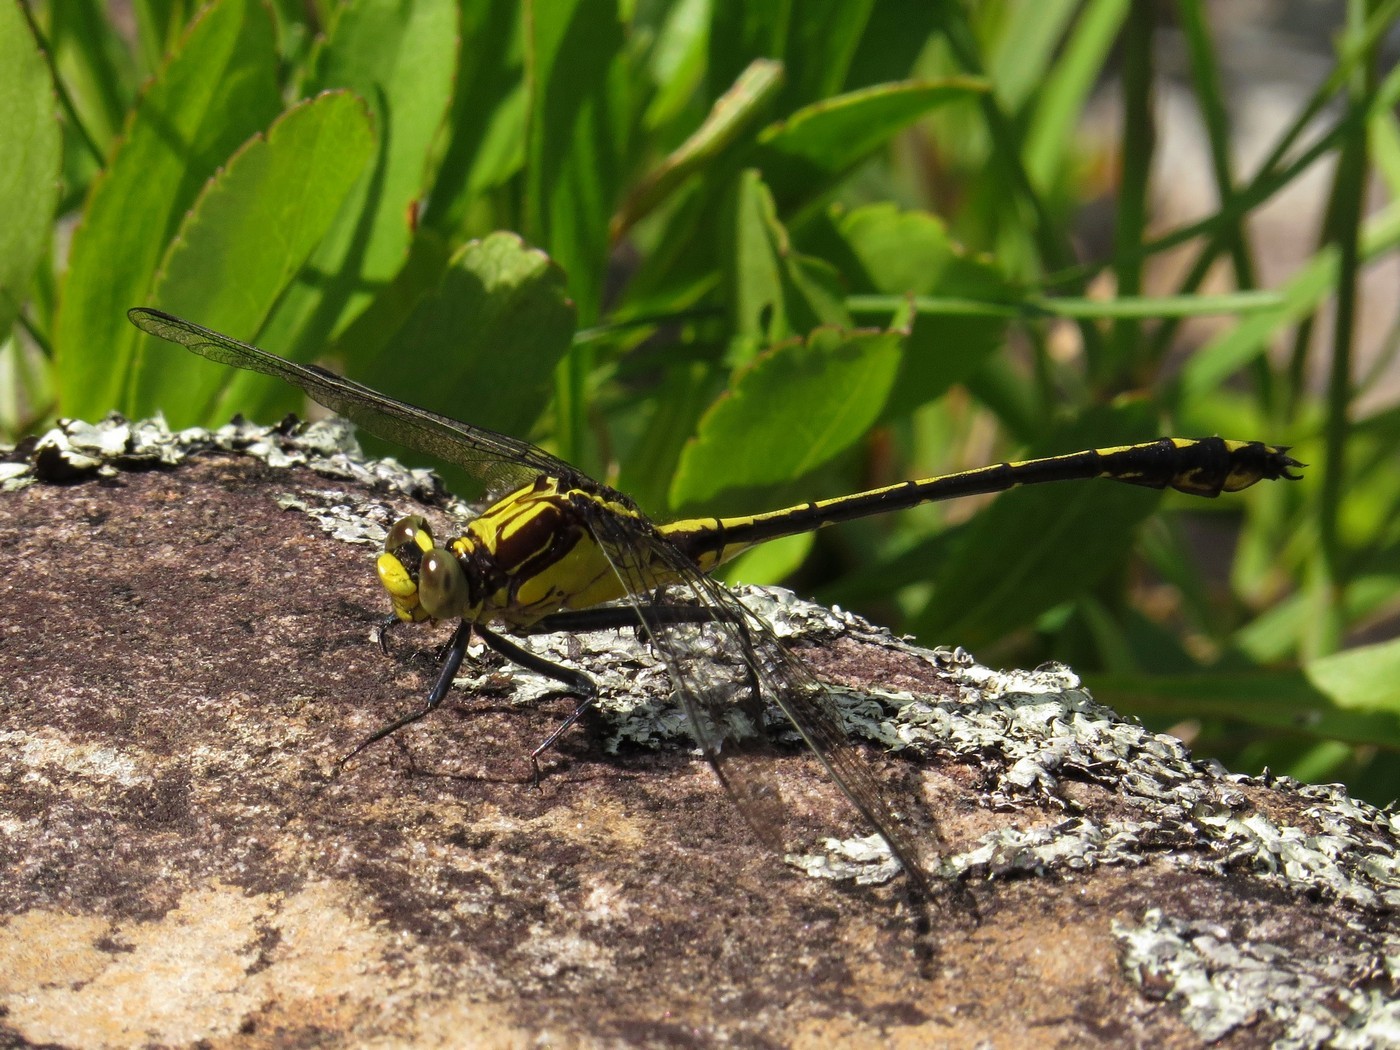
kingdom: Animalia
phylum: Arthropoda
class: Insecta
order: Odonata
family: Gomphidae
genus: Dromogomphus
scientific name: Dromogomphus spinosus
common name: Black-shouldered spinyleg
